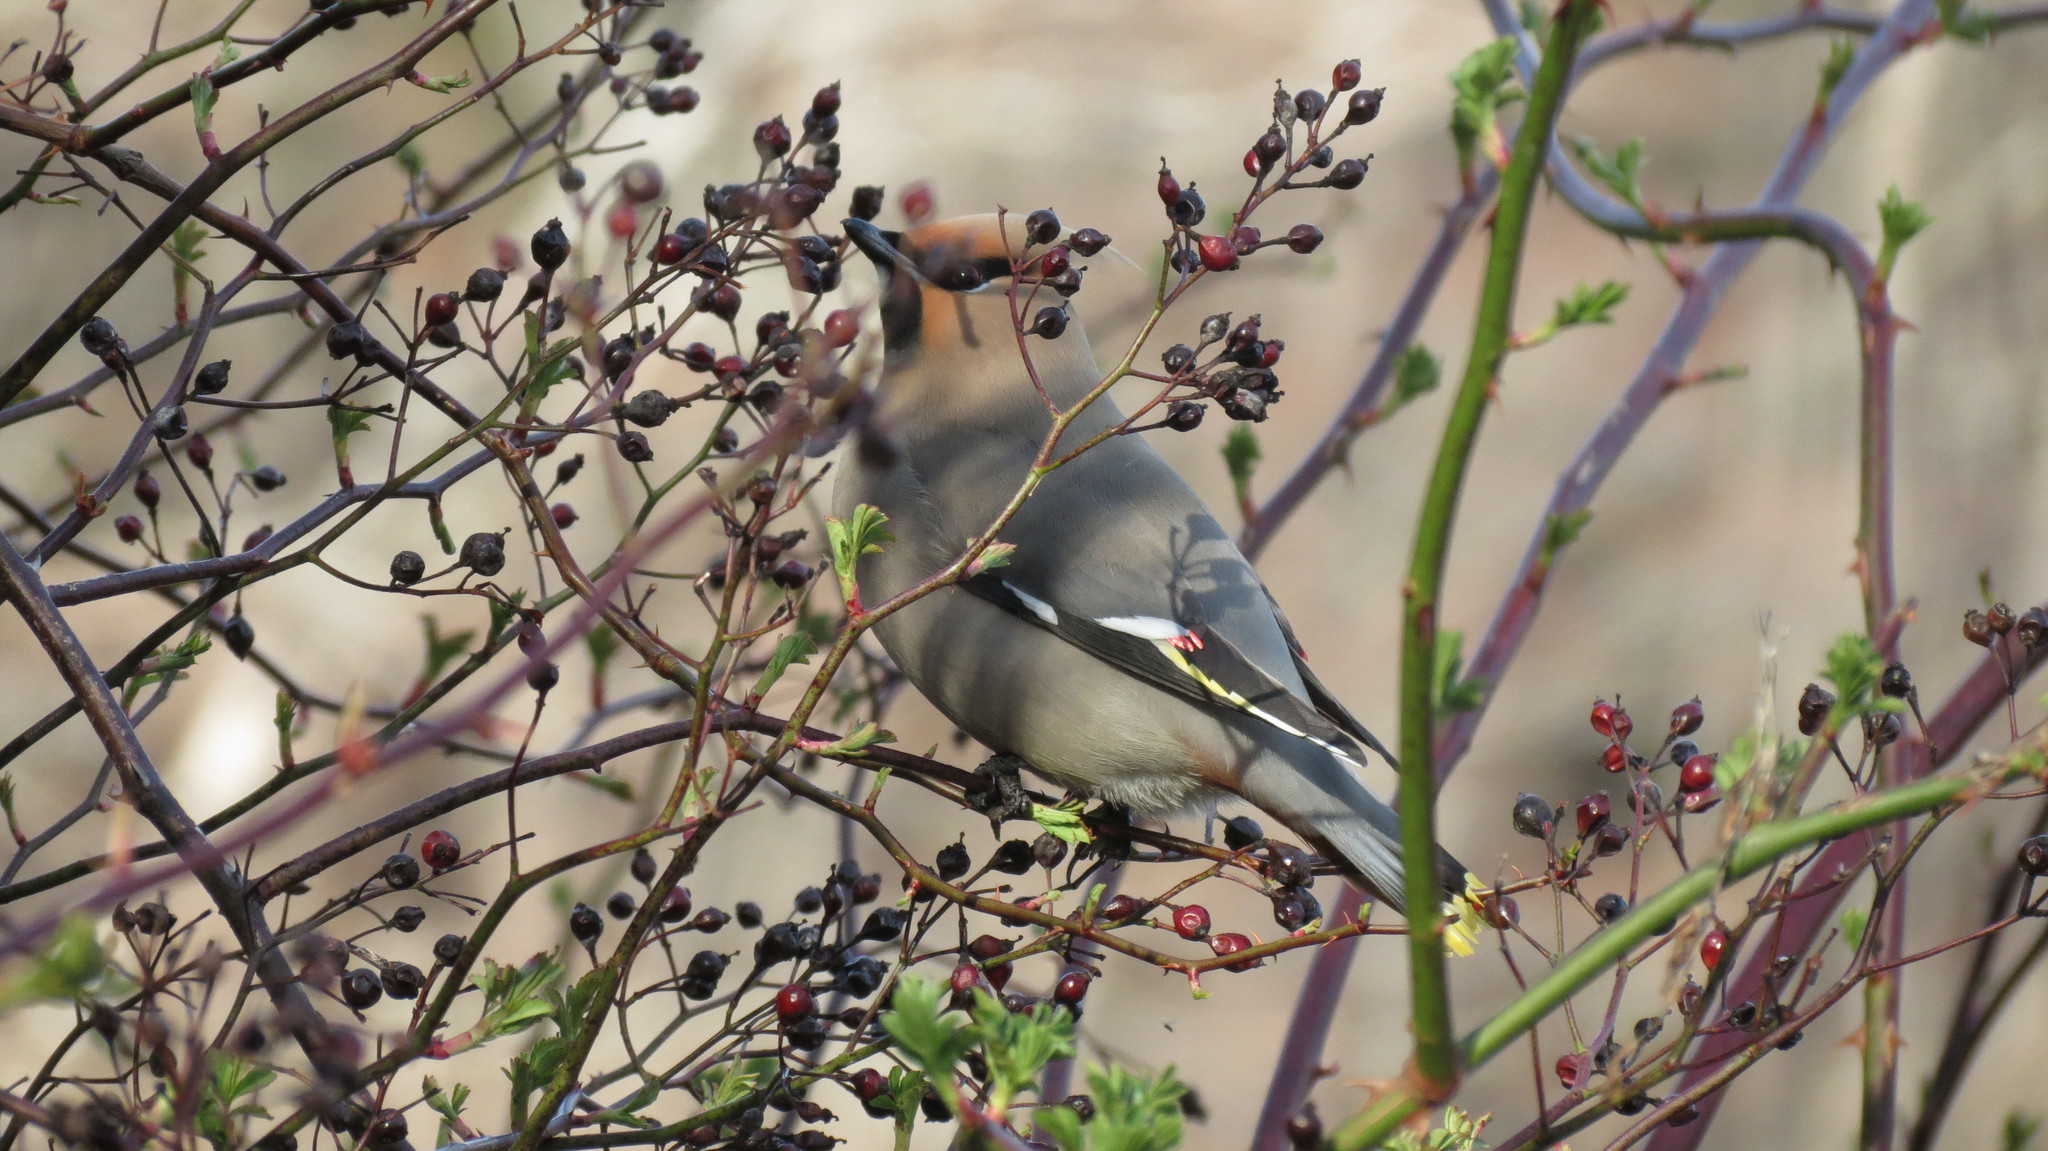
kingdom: Animalia
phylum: Chordata
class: Aves
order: Passeriformes
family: Bombycillidae
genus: Bombycilla
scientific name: Bombycilla garrulus
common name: Bohemian waxwing
